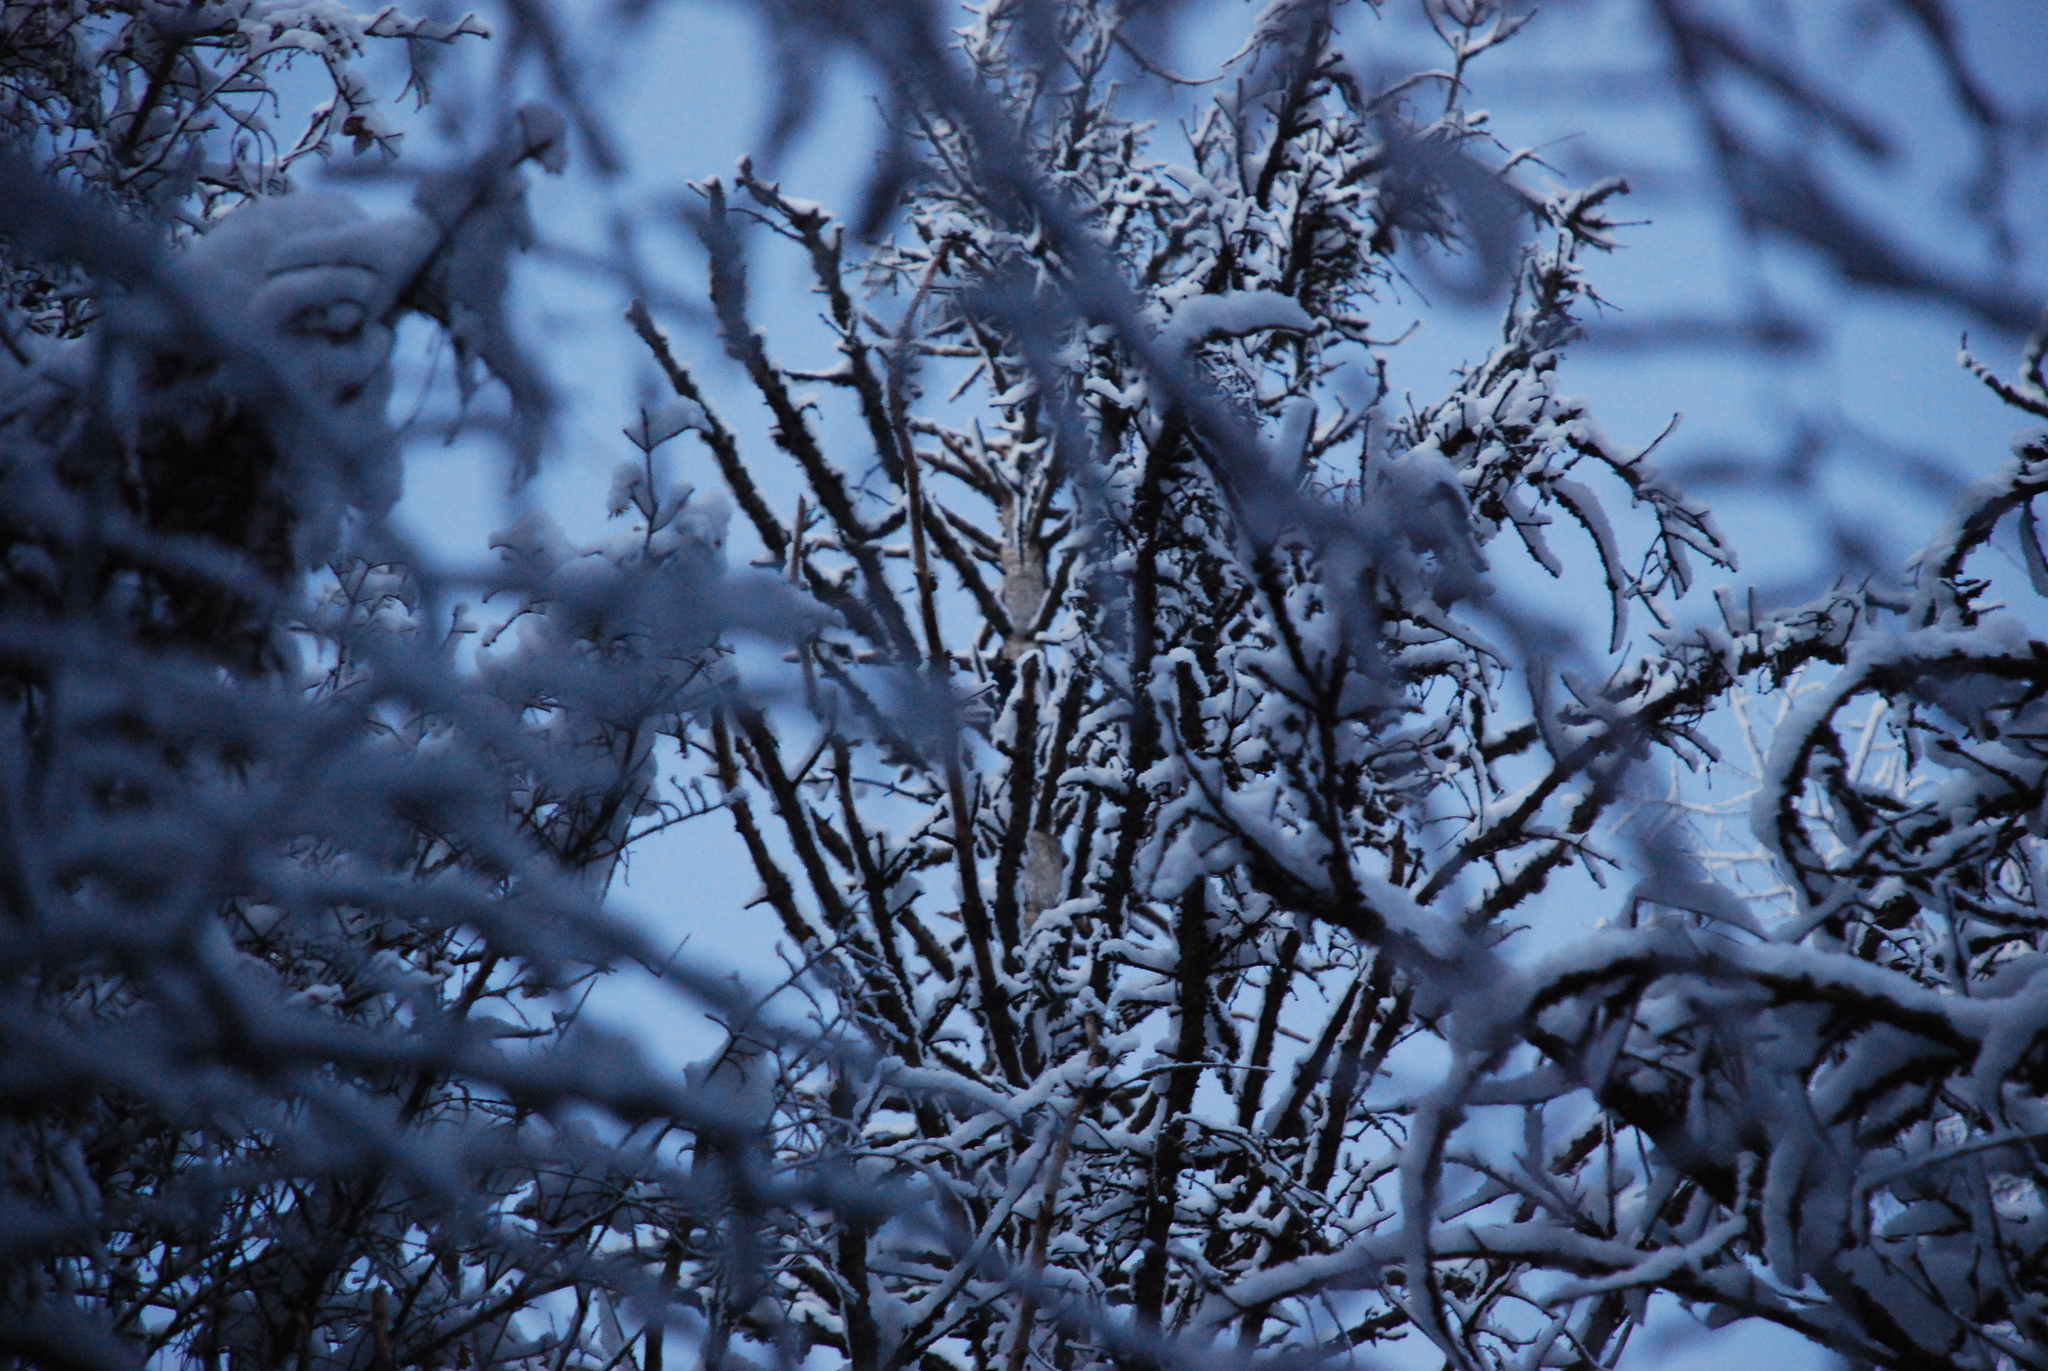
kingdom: Animalia
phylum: Chordata
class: Aves
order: Piciformes
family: Picidae
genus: Dendrocopos
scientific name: Dendrocopos major
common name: Great spotted woodpecker
